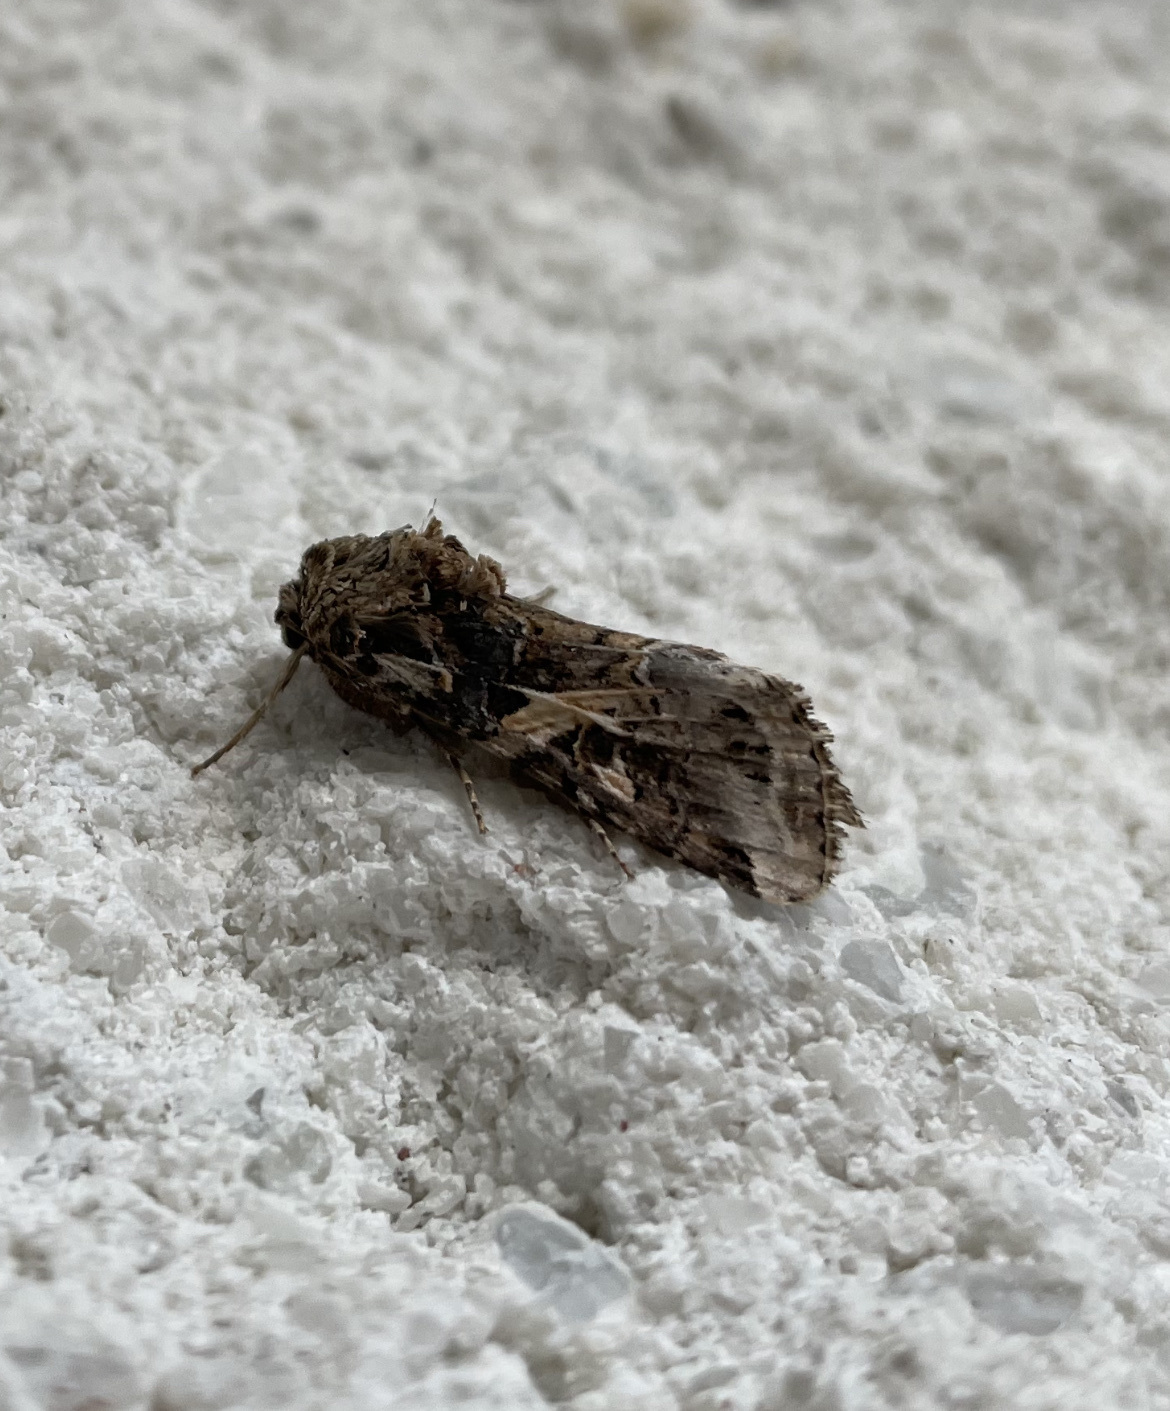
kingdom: Animalia
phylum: Arthropoda
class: Insecta
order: Lepidoptera
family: Noctuidae
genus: Spodoptera
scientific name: Spodoptera frugiperda
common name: Fall armyworm
